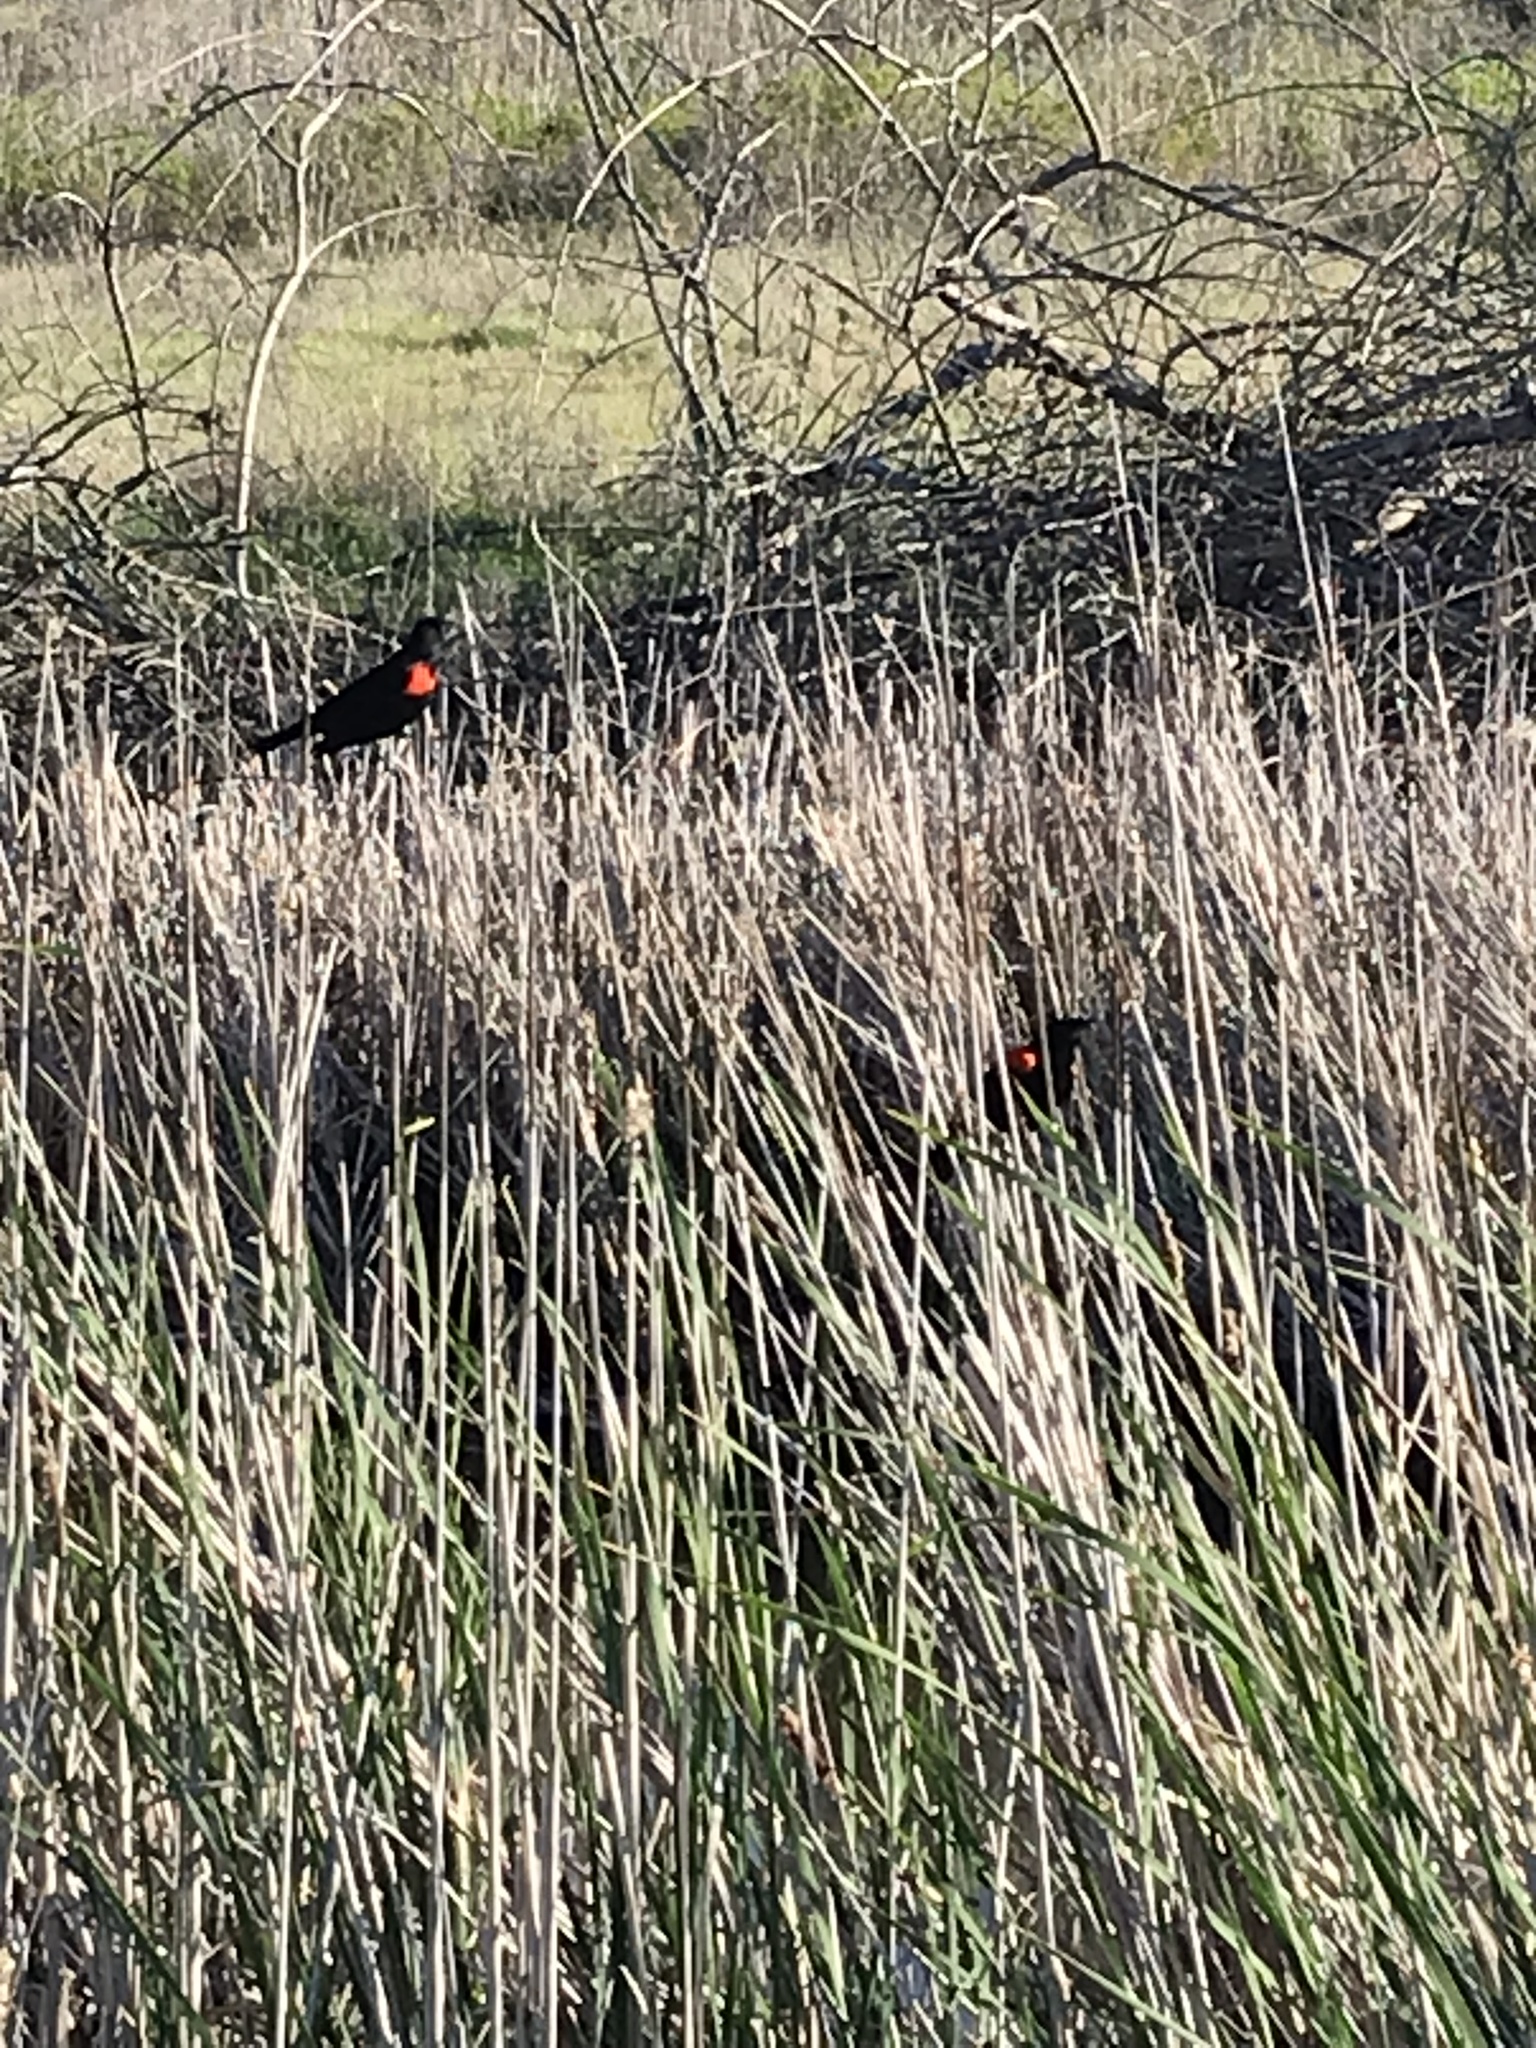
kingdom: Animalia
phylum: Chordata
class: Aves
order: Passeriformes
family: Icteridae
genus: Agelaius
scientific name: Agelaius phoeniceus
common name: Red-winged blackbird
